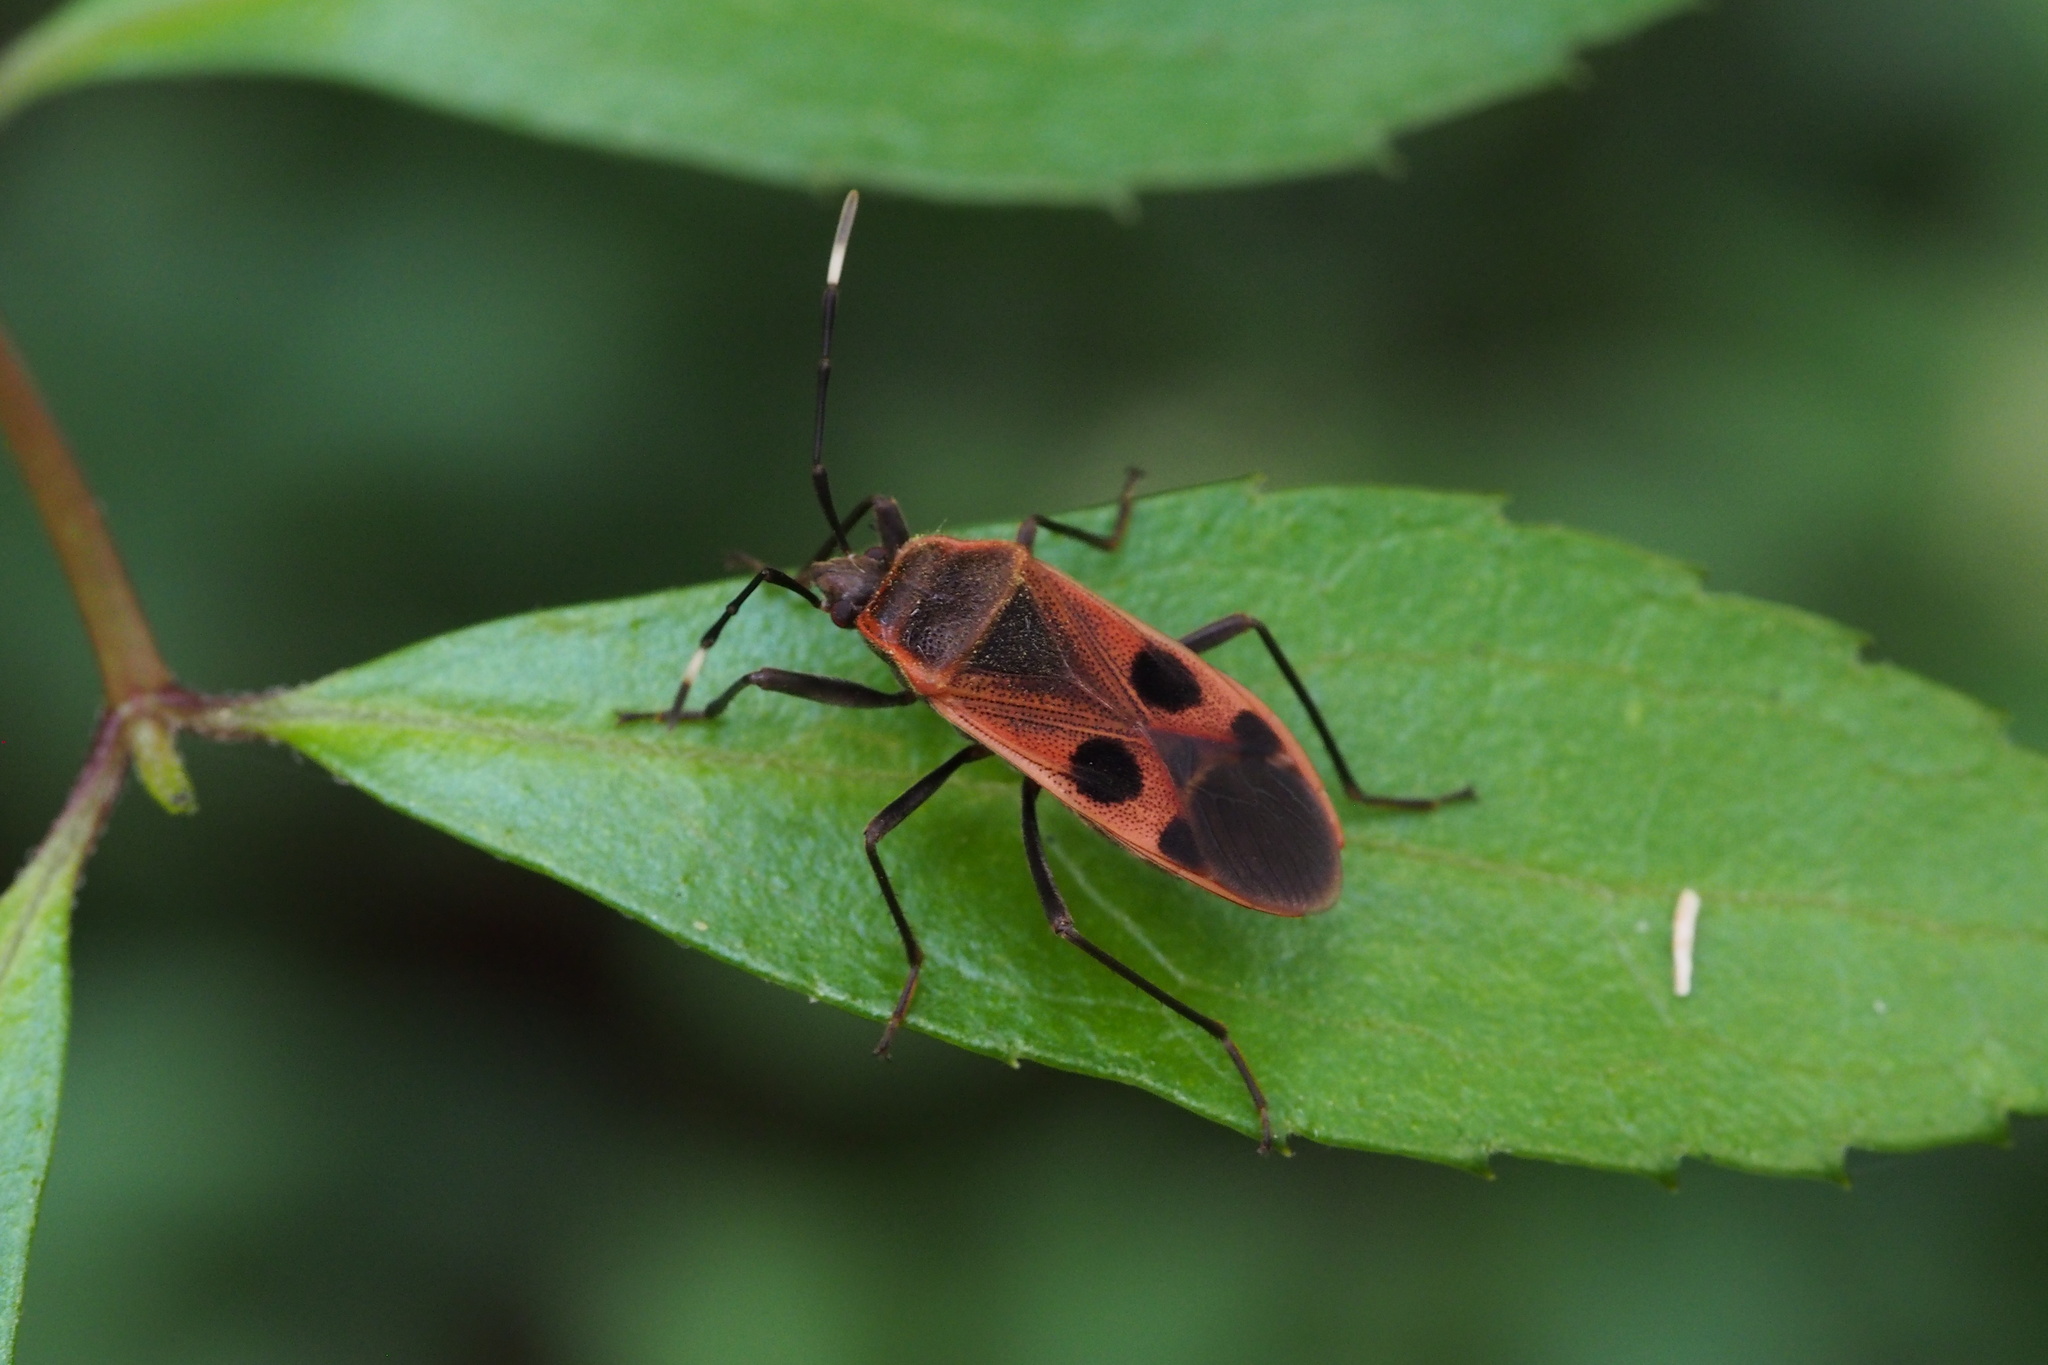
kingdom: Animalia
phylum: Arthropoda
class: Insecta
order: Hemiptera
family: Largidae
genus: Physopelta
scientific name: Physopelta parviceps
